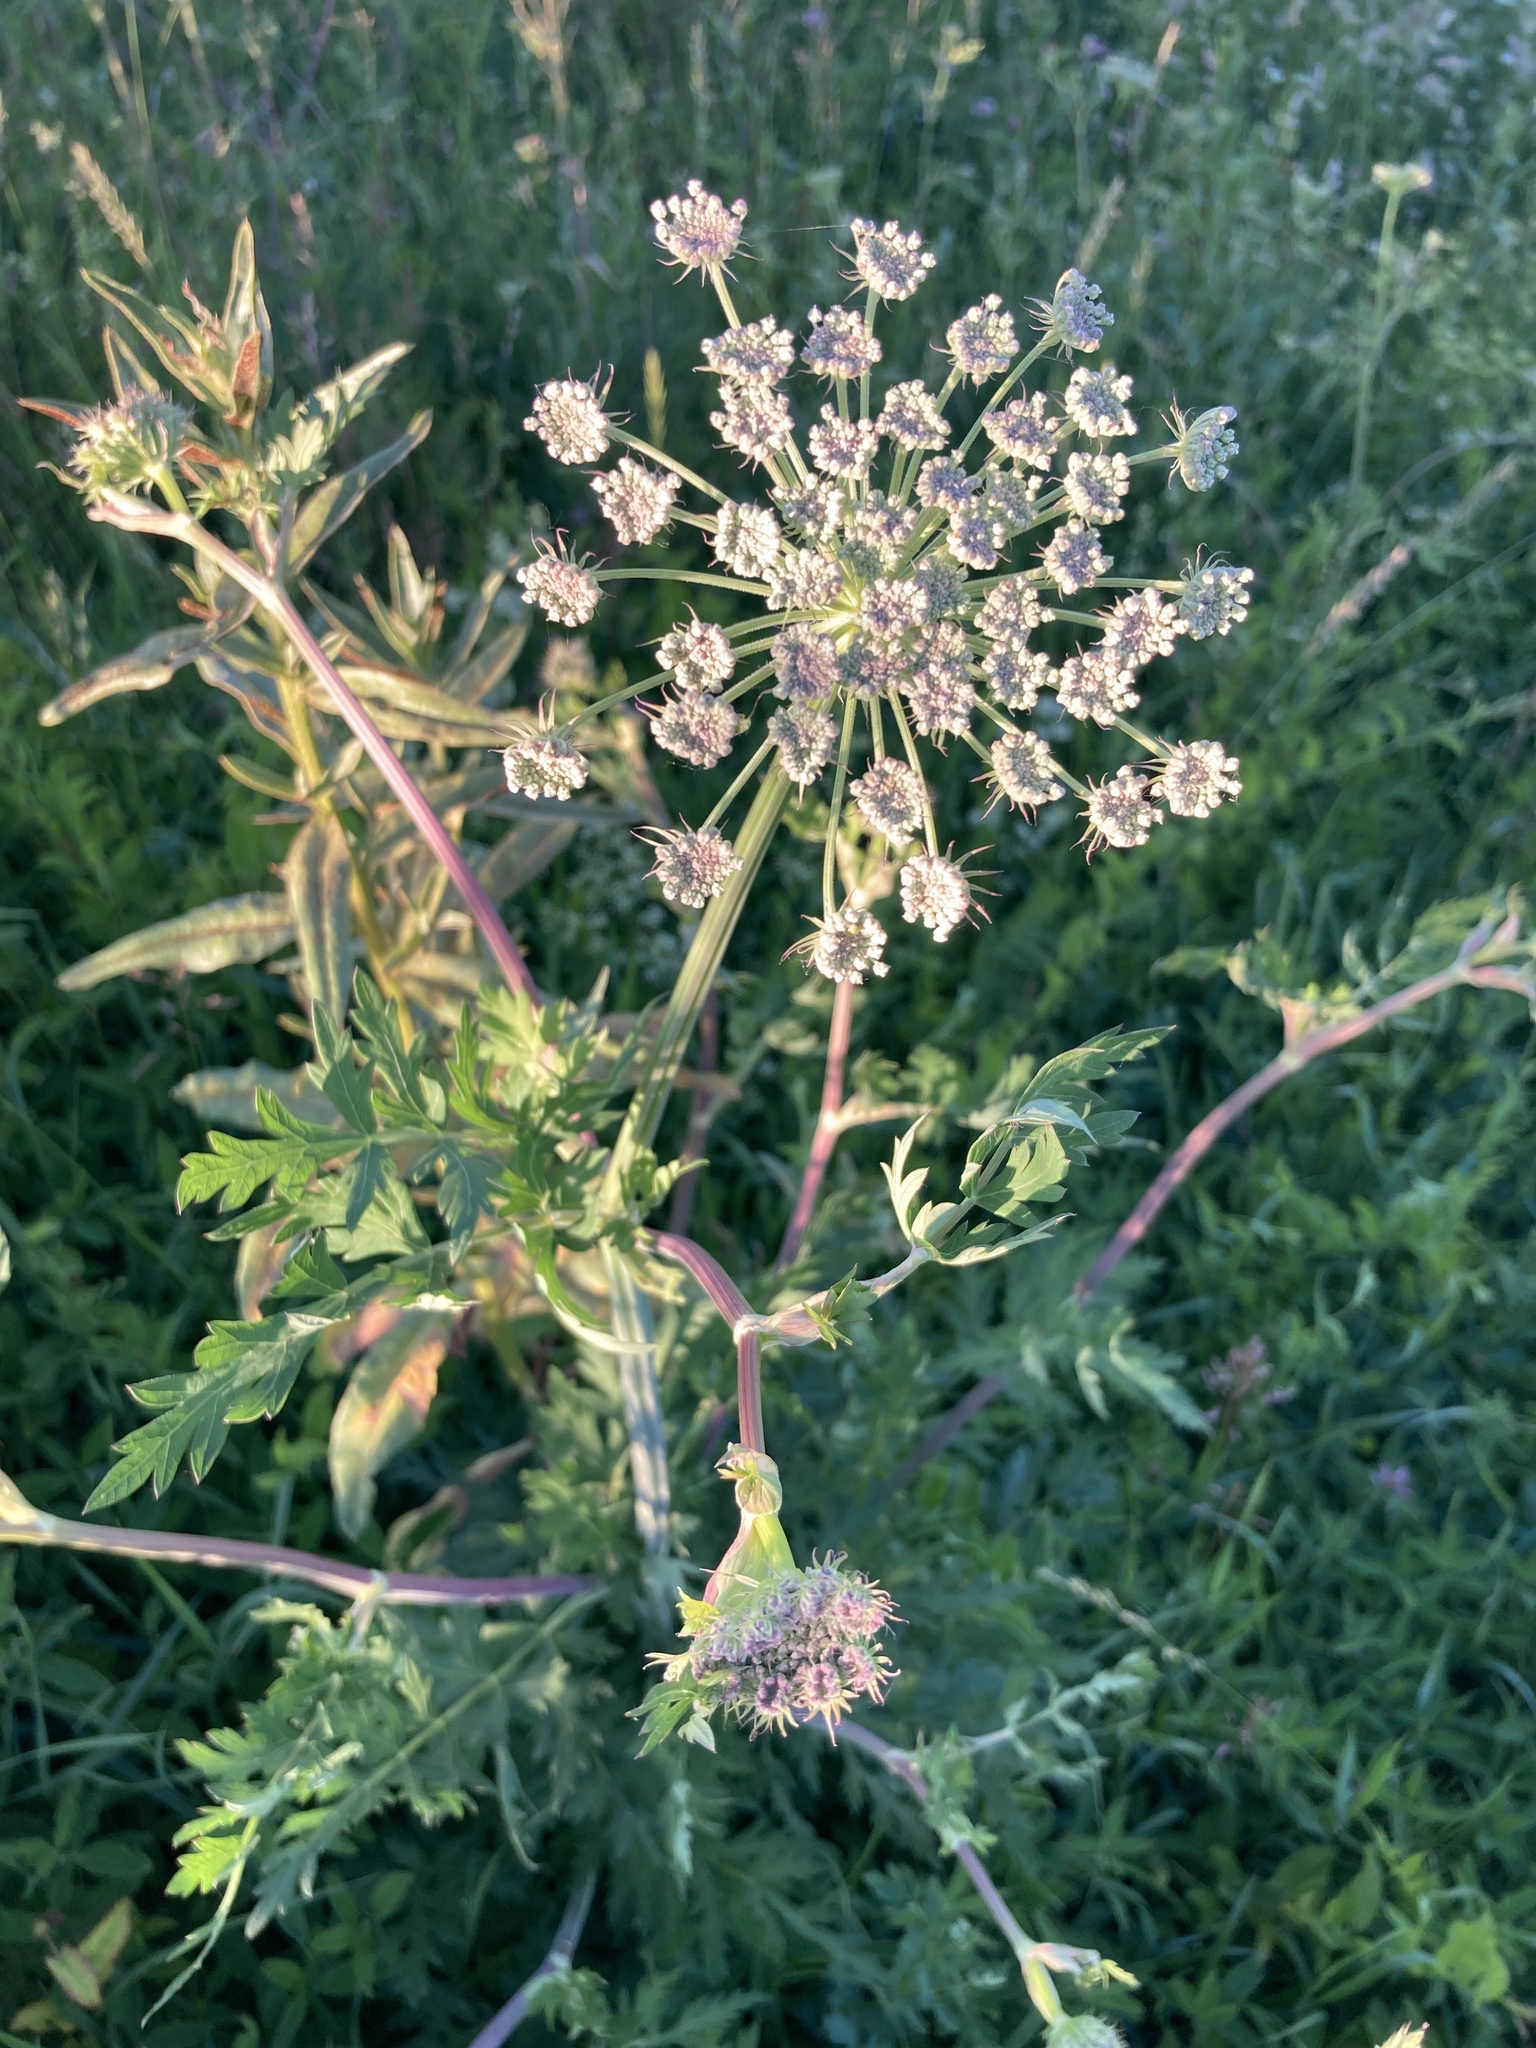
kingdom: Plantae
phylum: Tracheophyta
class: Magnoliopsida
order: Apiales
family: Apiaceae
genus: Seseli
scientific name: Seseli libanotis
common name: Mooncarrot
